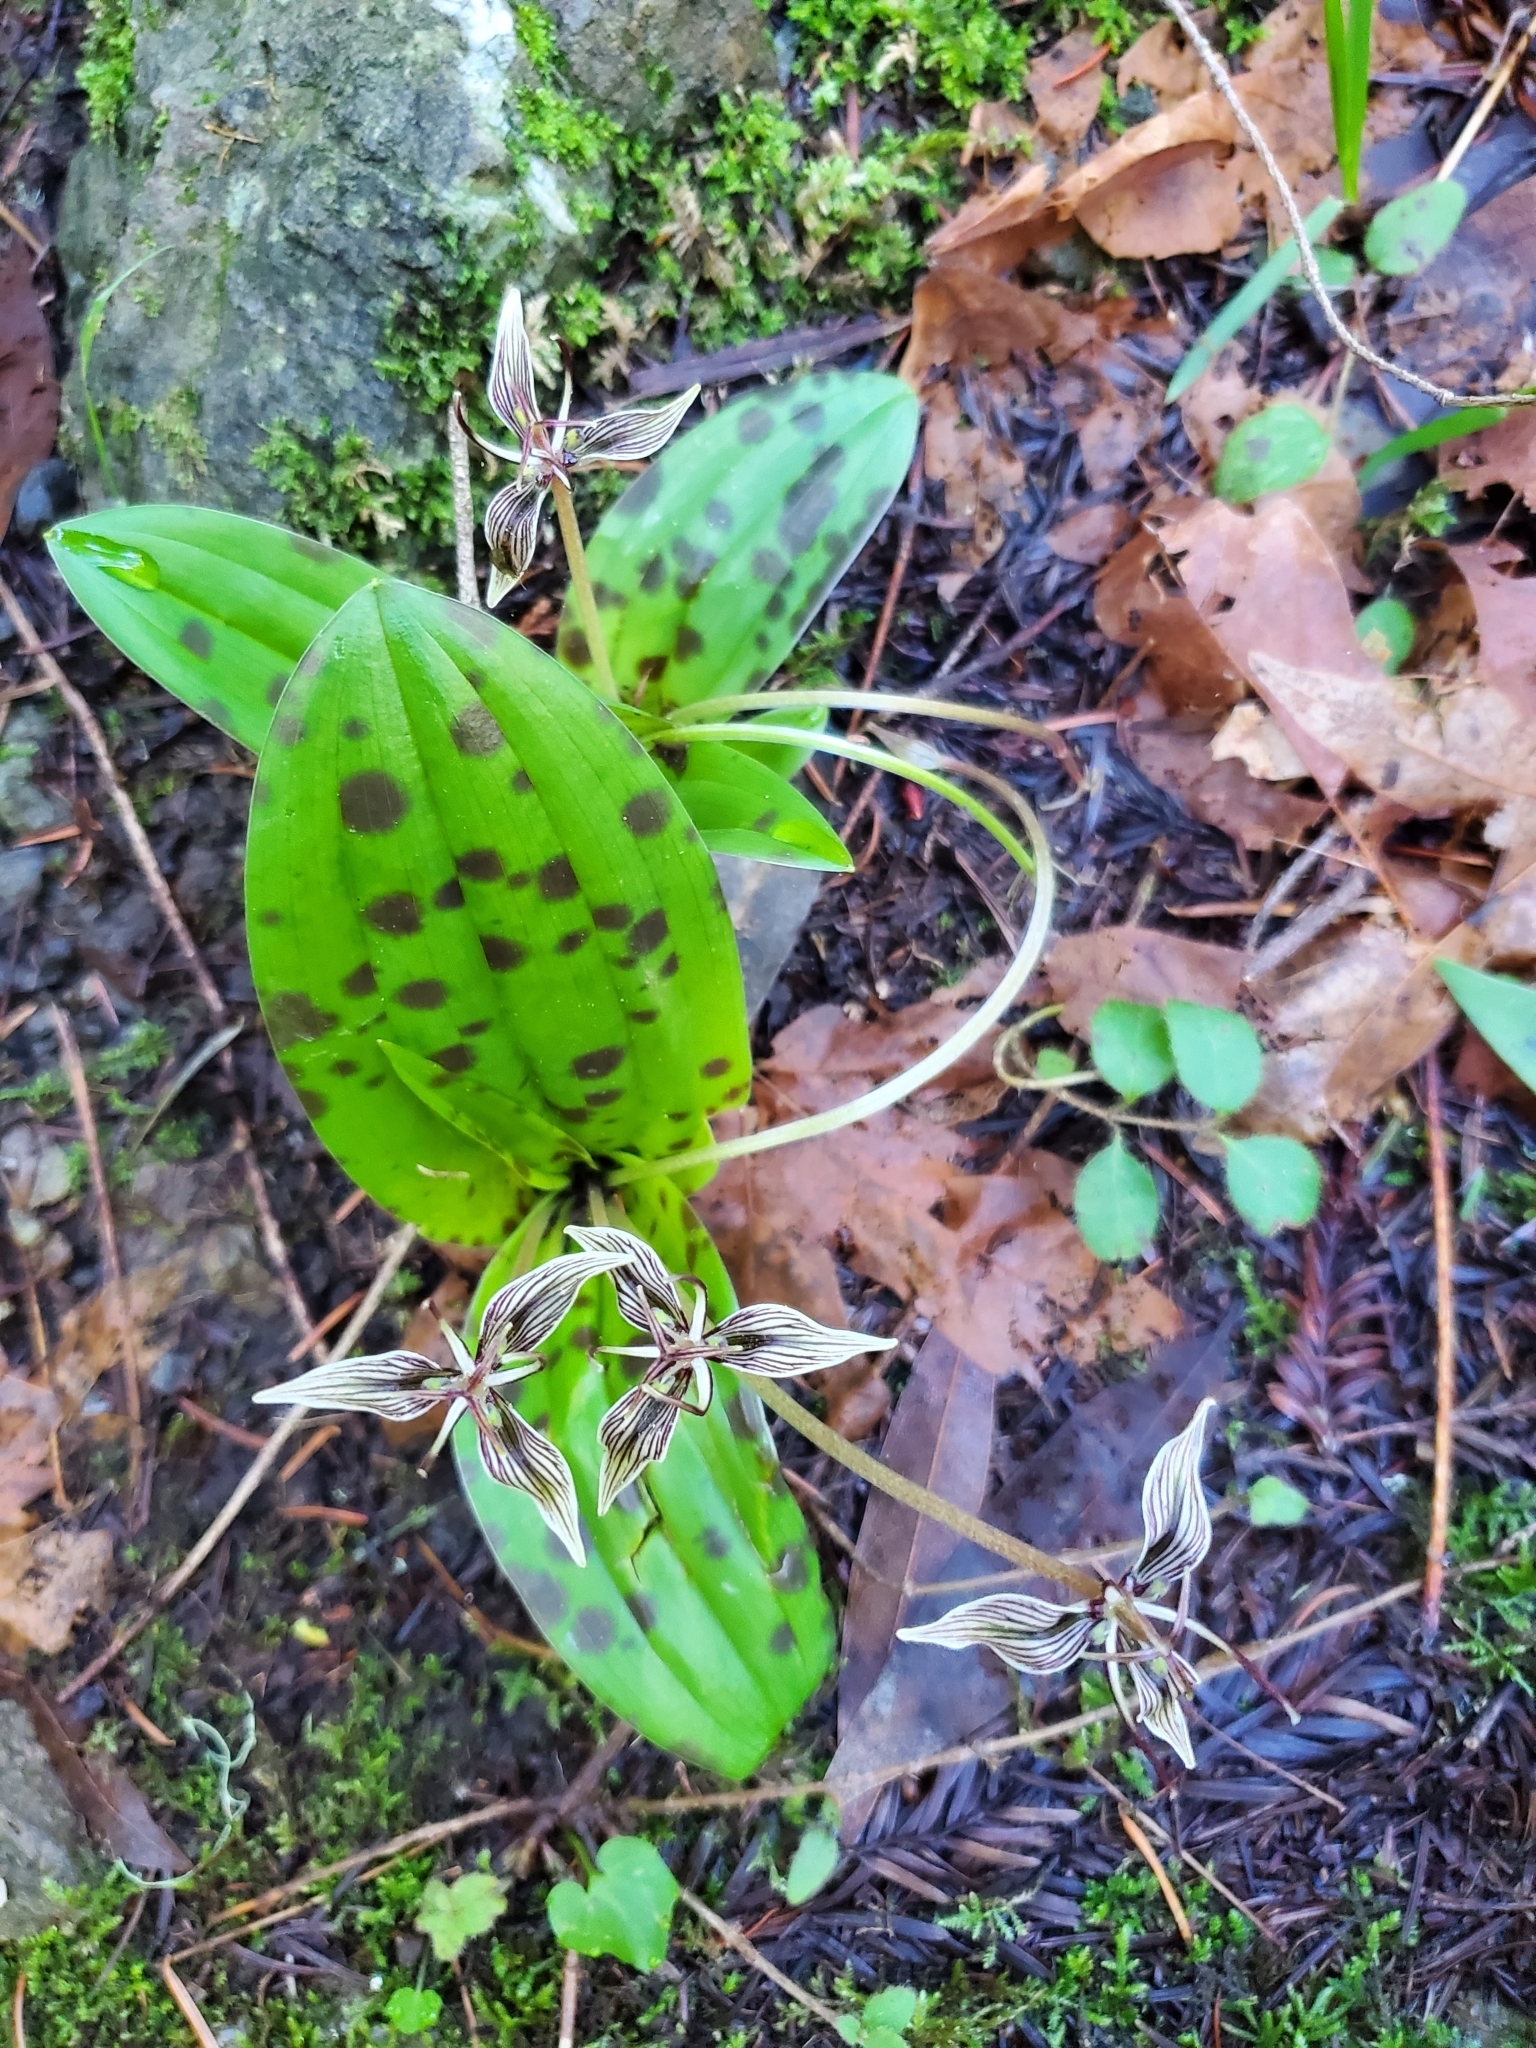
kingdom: Plantae
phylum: Tracheophyta
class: Liliopsida
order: Liliales
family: Liliaceae
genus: Scoliopus
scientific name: Scoliopus bigelovii
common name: Foetid adder's-tongue
